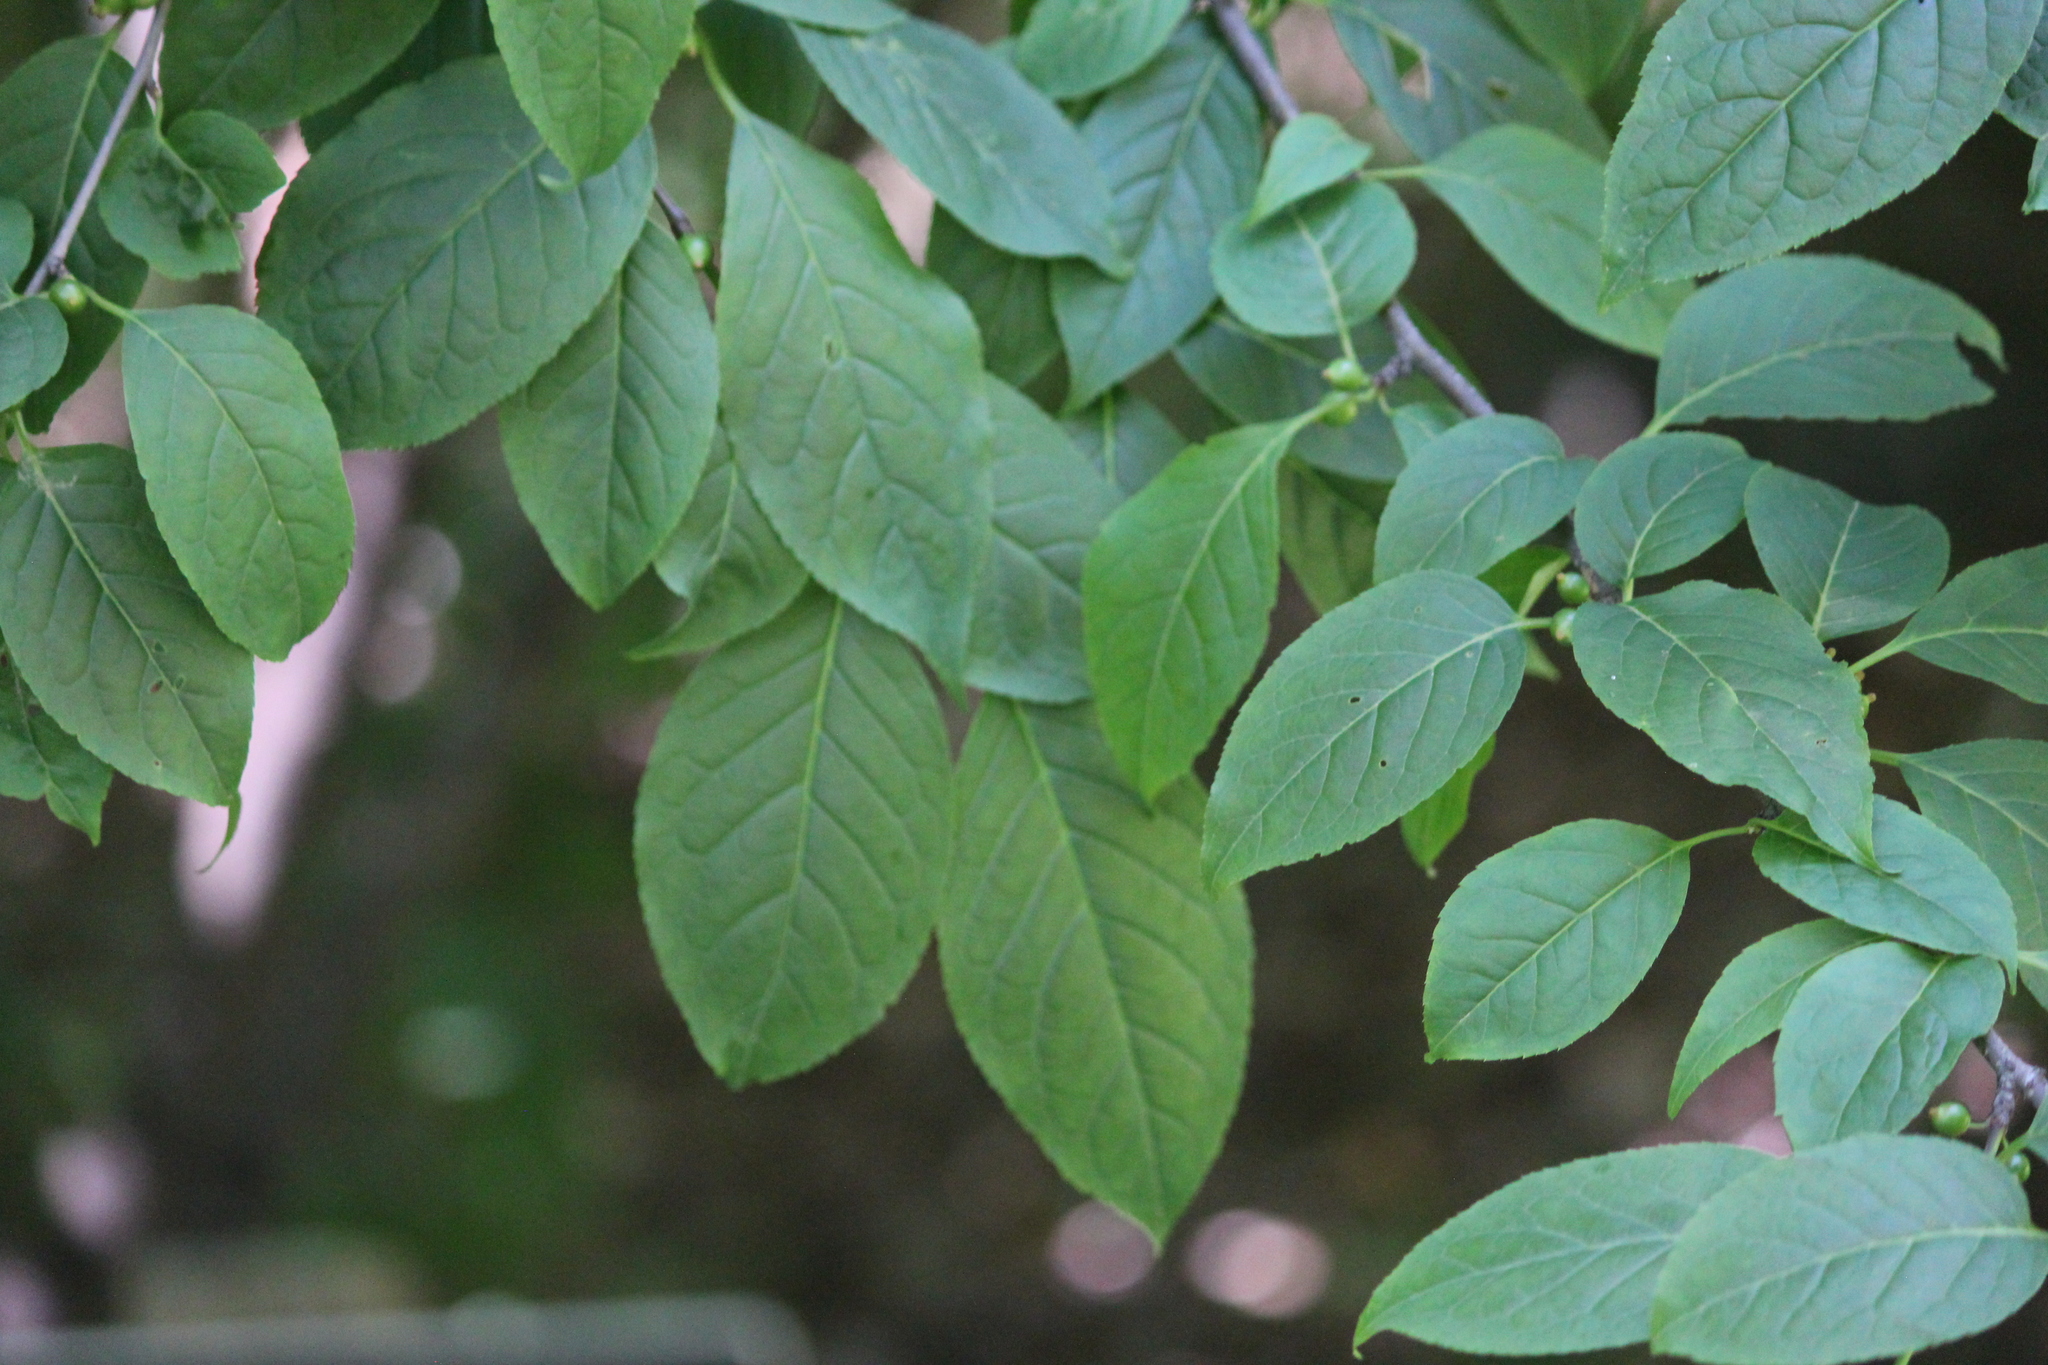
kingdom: Plantae
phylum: Tracheophyta
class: Magnoliopsida
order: Aquifoliales
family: Aquifoliaceae
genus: Ilex
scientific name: Ilex montana
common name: Mountain winterberry
